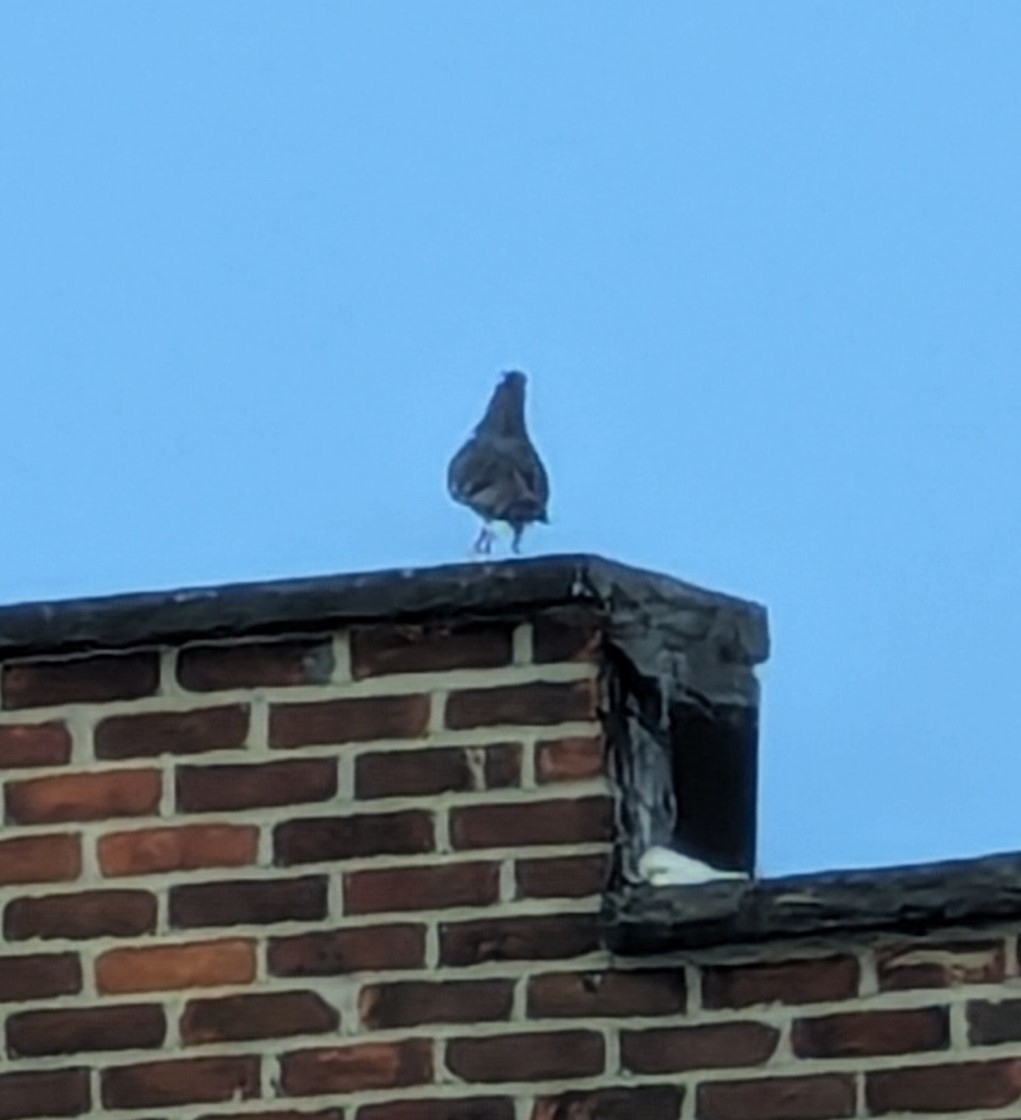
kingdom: Animalia
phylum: Chordata
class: Aves
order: Columbiformes
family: Columbidae
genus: Columba
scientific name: Columba livia
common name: Rock pigeon
